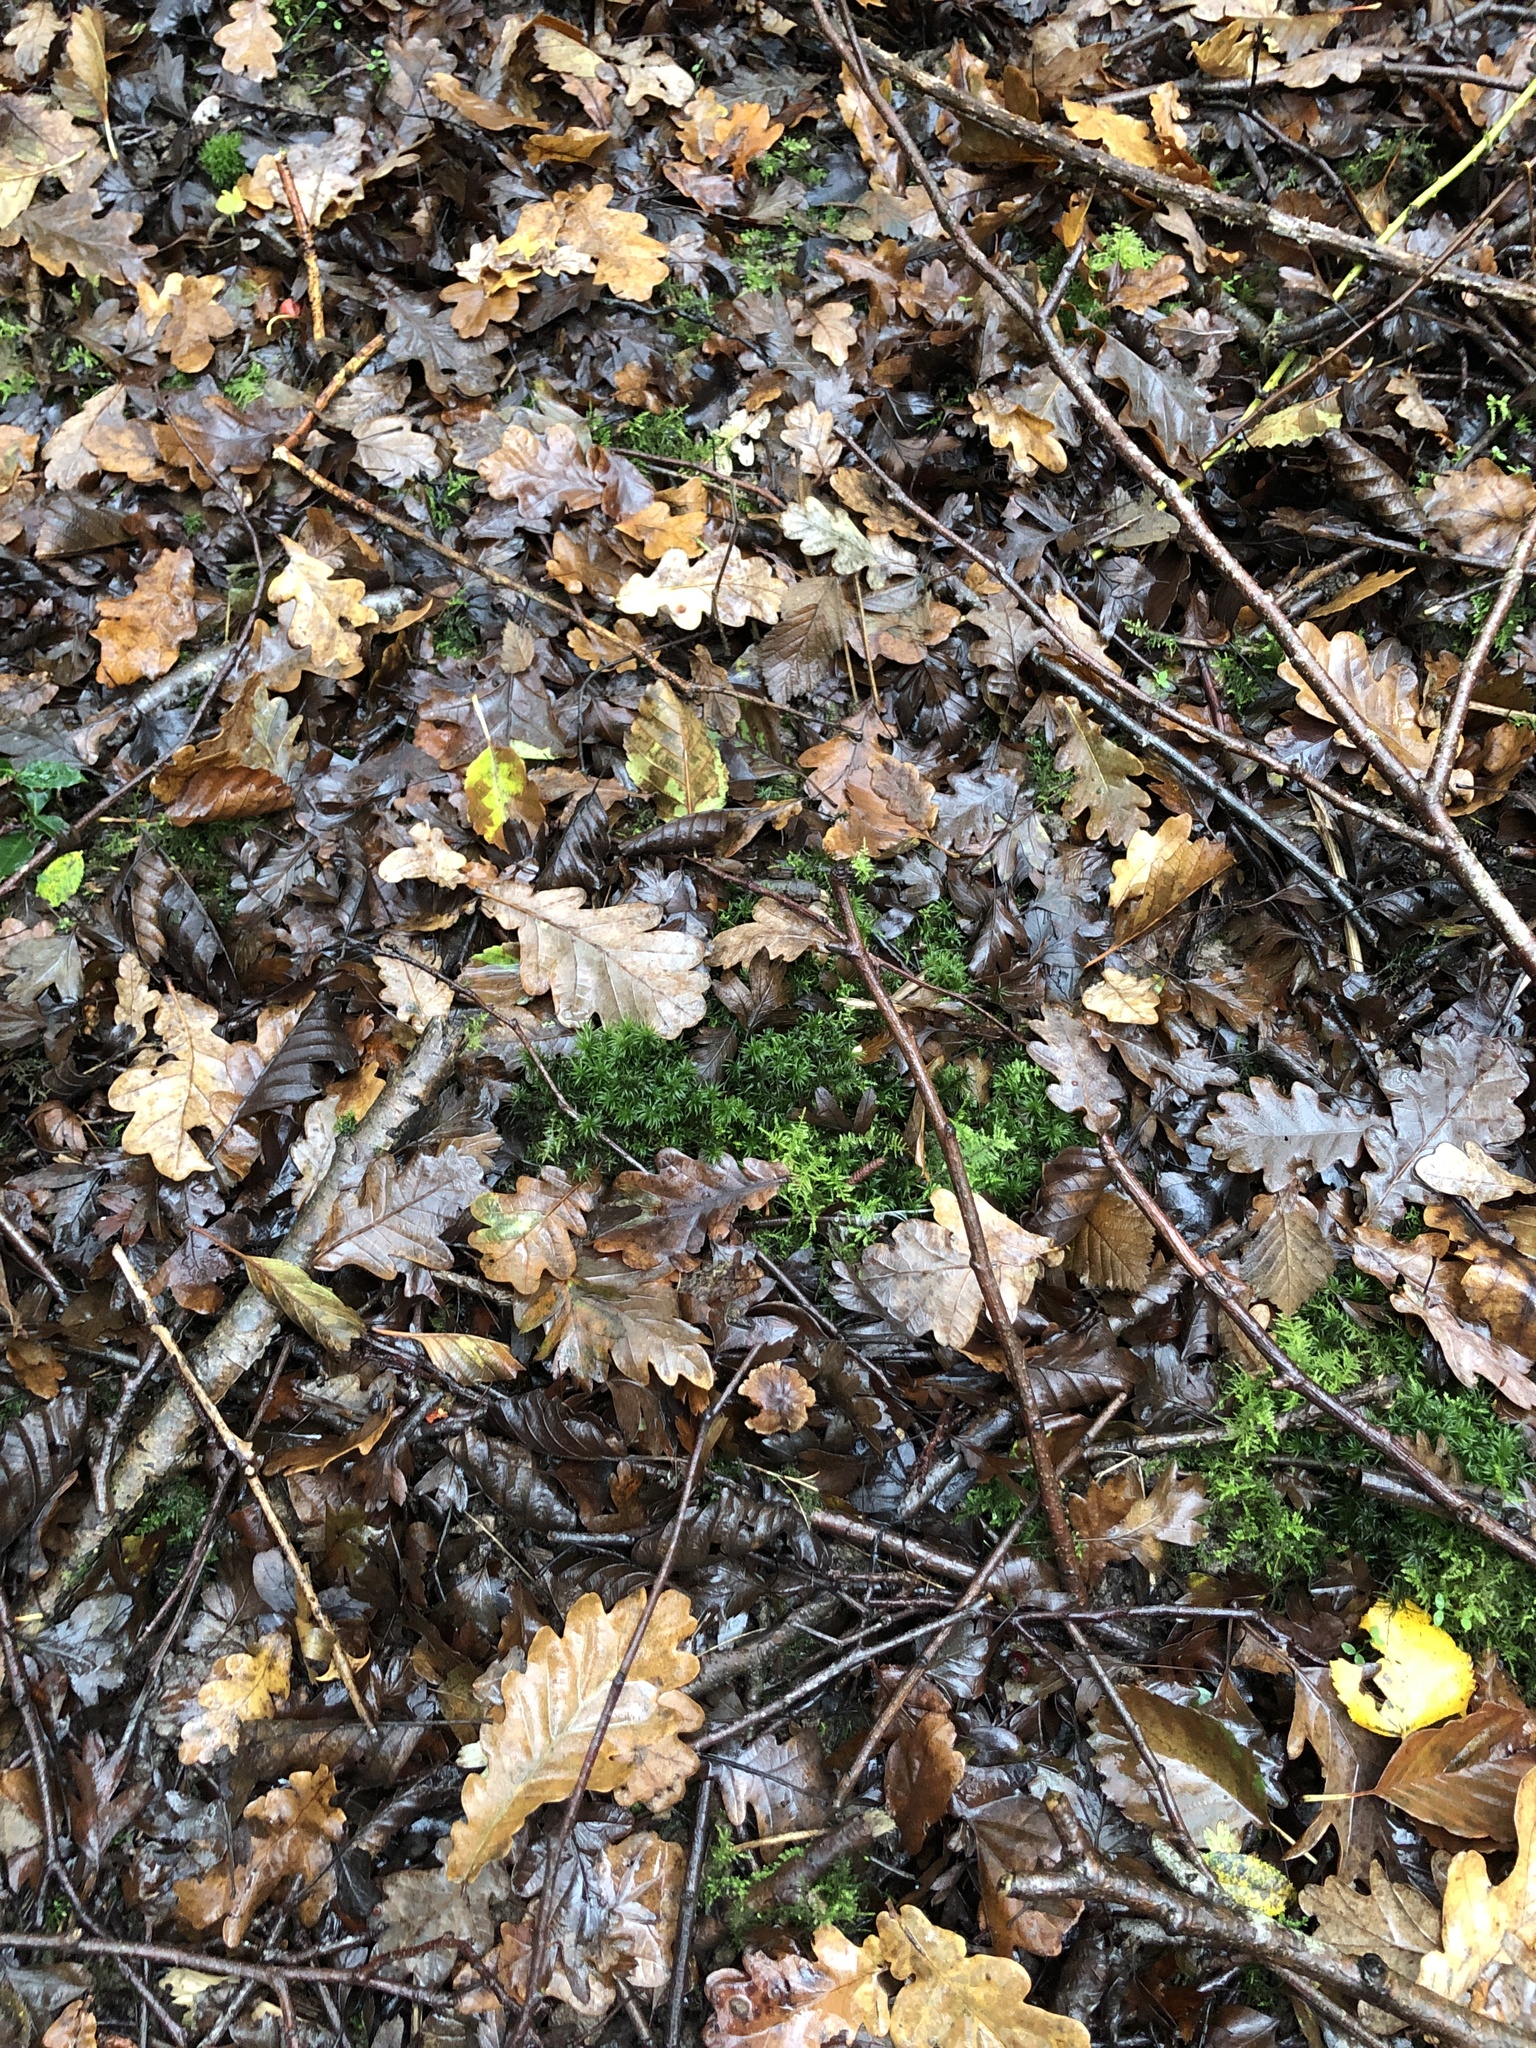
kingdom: Plantae
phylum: Bryophyta
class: Polytrichopsida
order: Polytrichales
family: Polytrichaceae
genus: Atrichum
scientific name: Atrichum undulatum
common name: Common smoothcap
